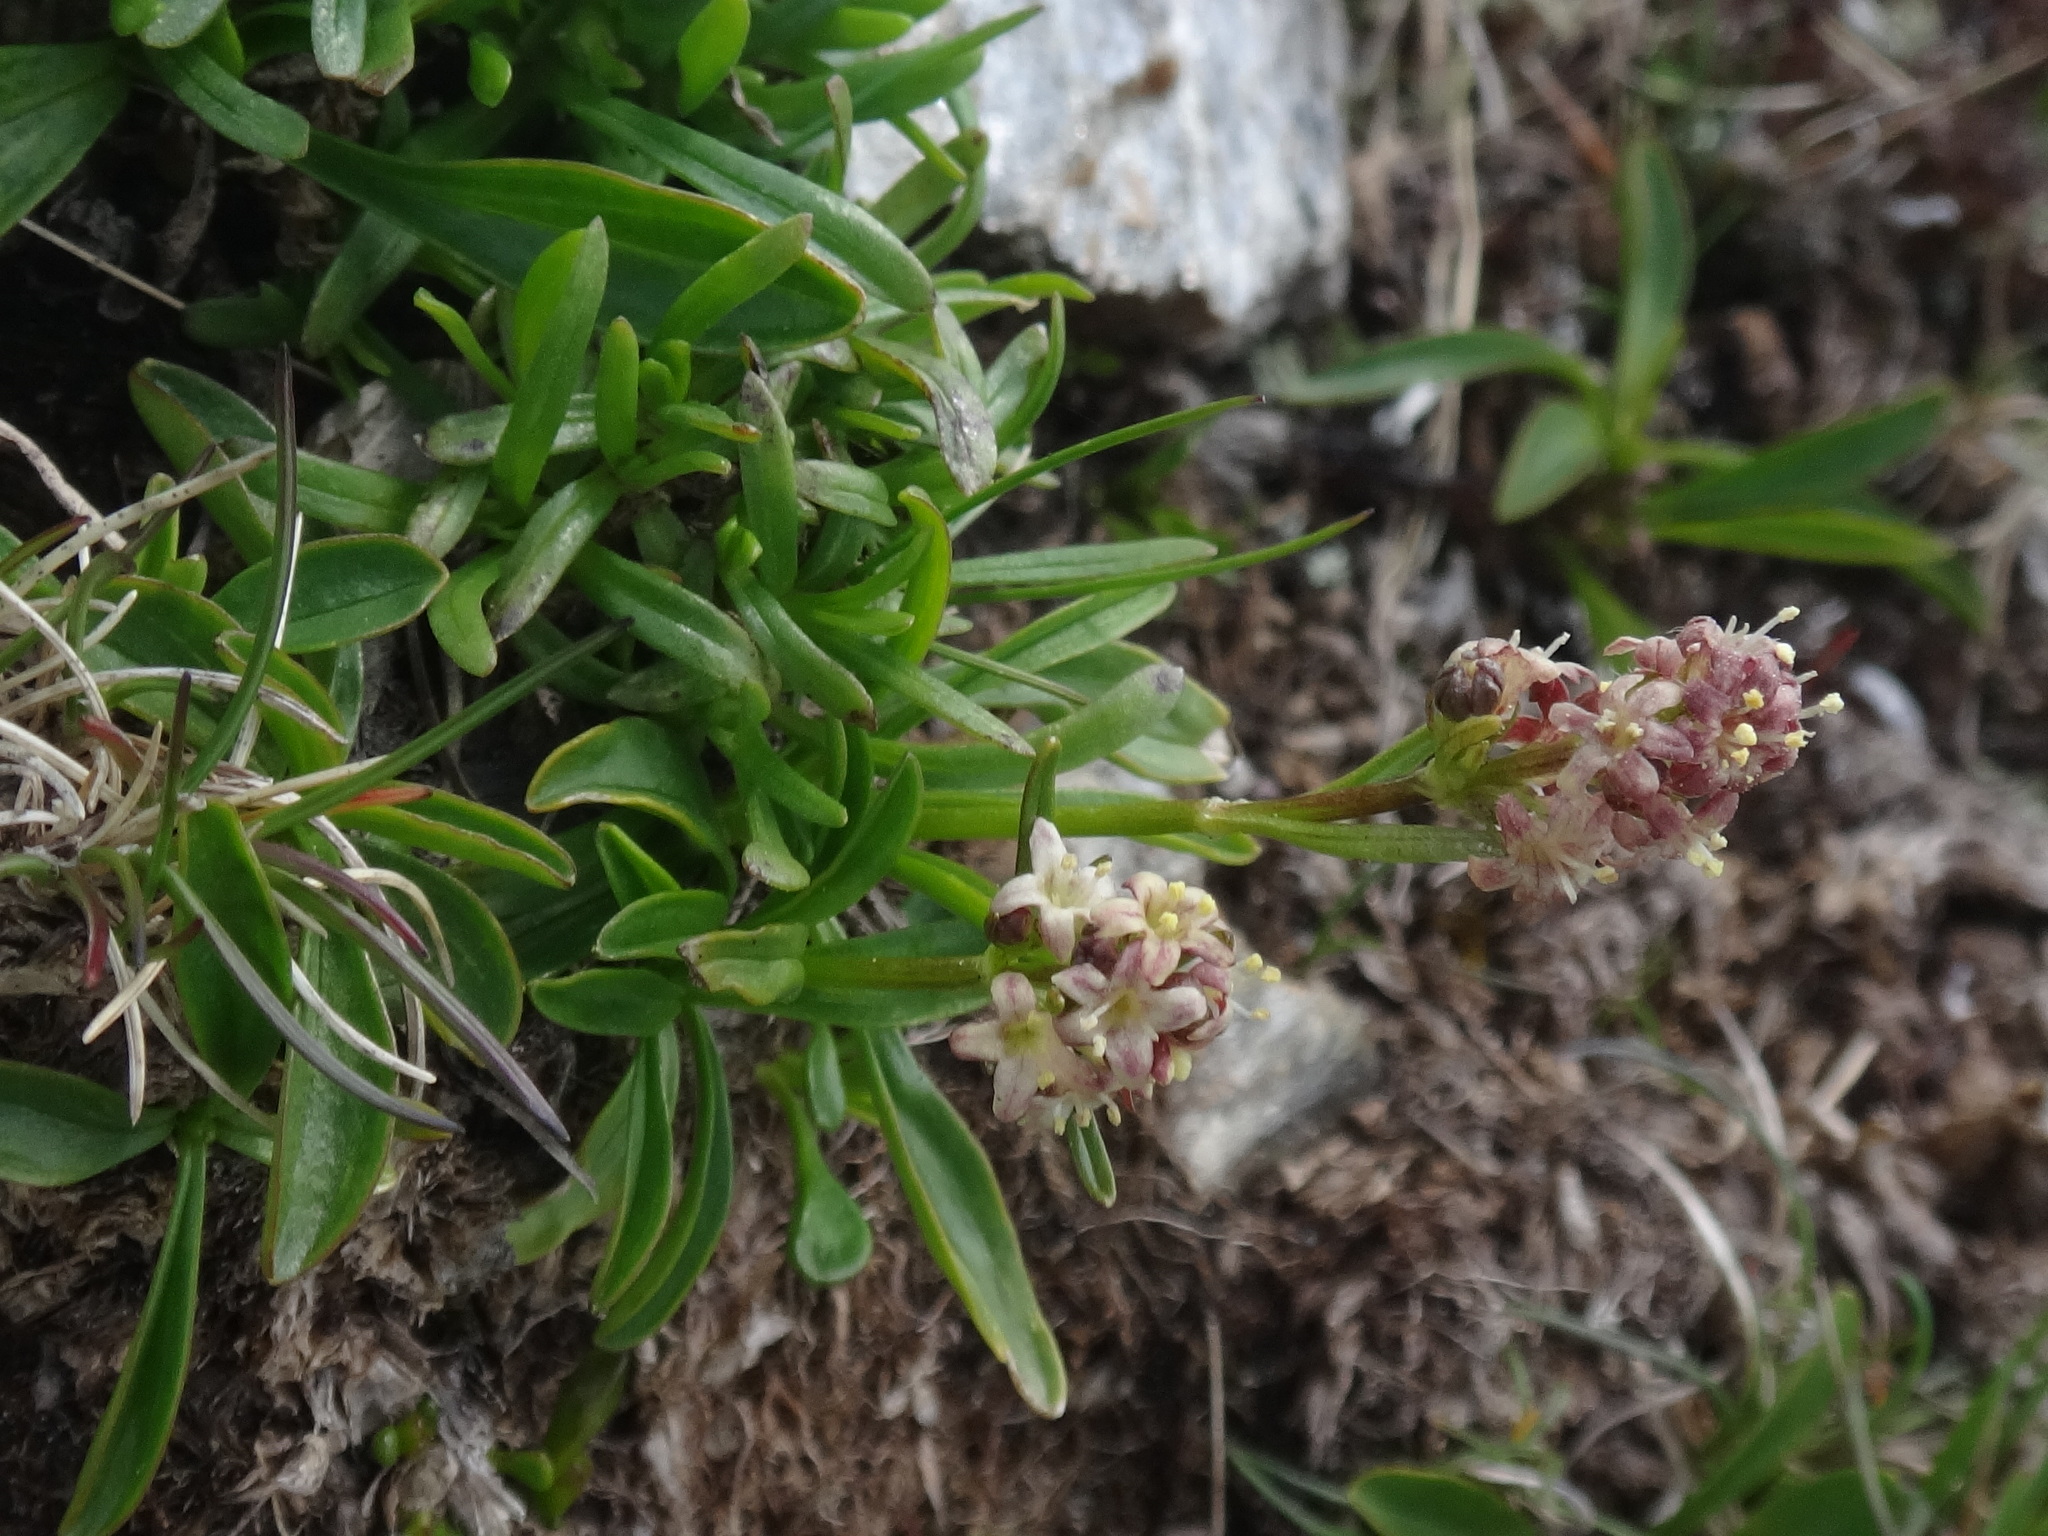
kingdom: Plantae
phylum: Tracheophyta
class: Magnoliopsida
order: Dipsacales
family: Caprifoliaceae
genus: Valeriana
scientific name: Valeriana celtica
